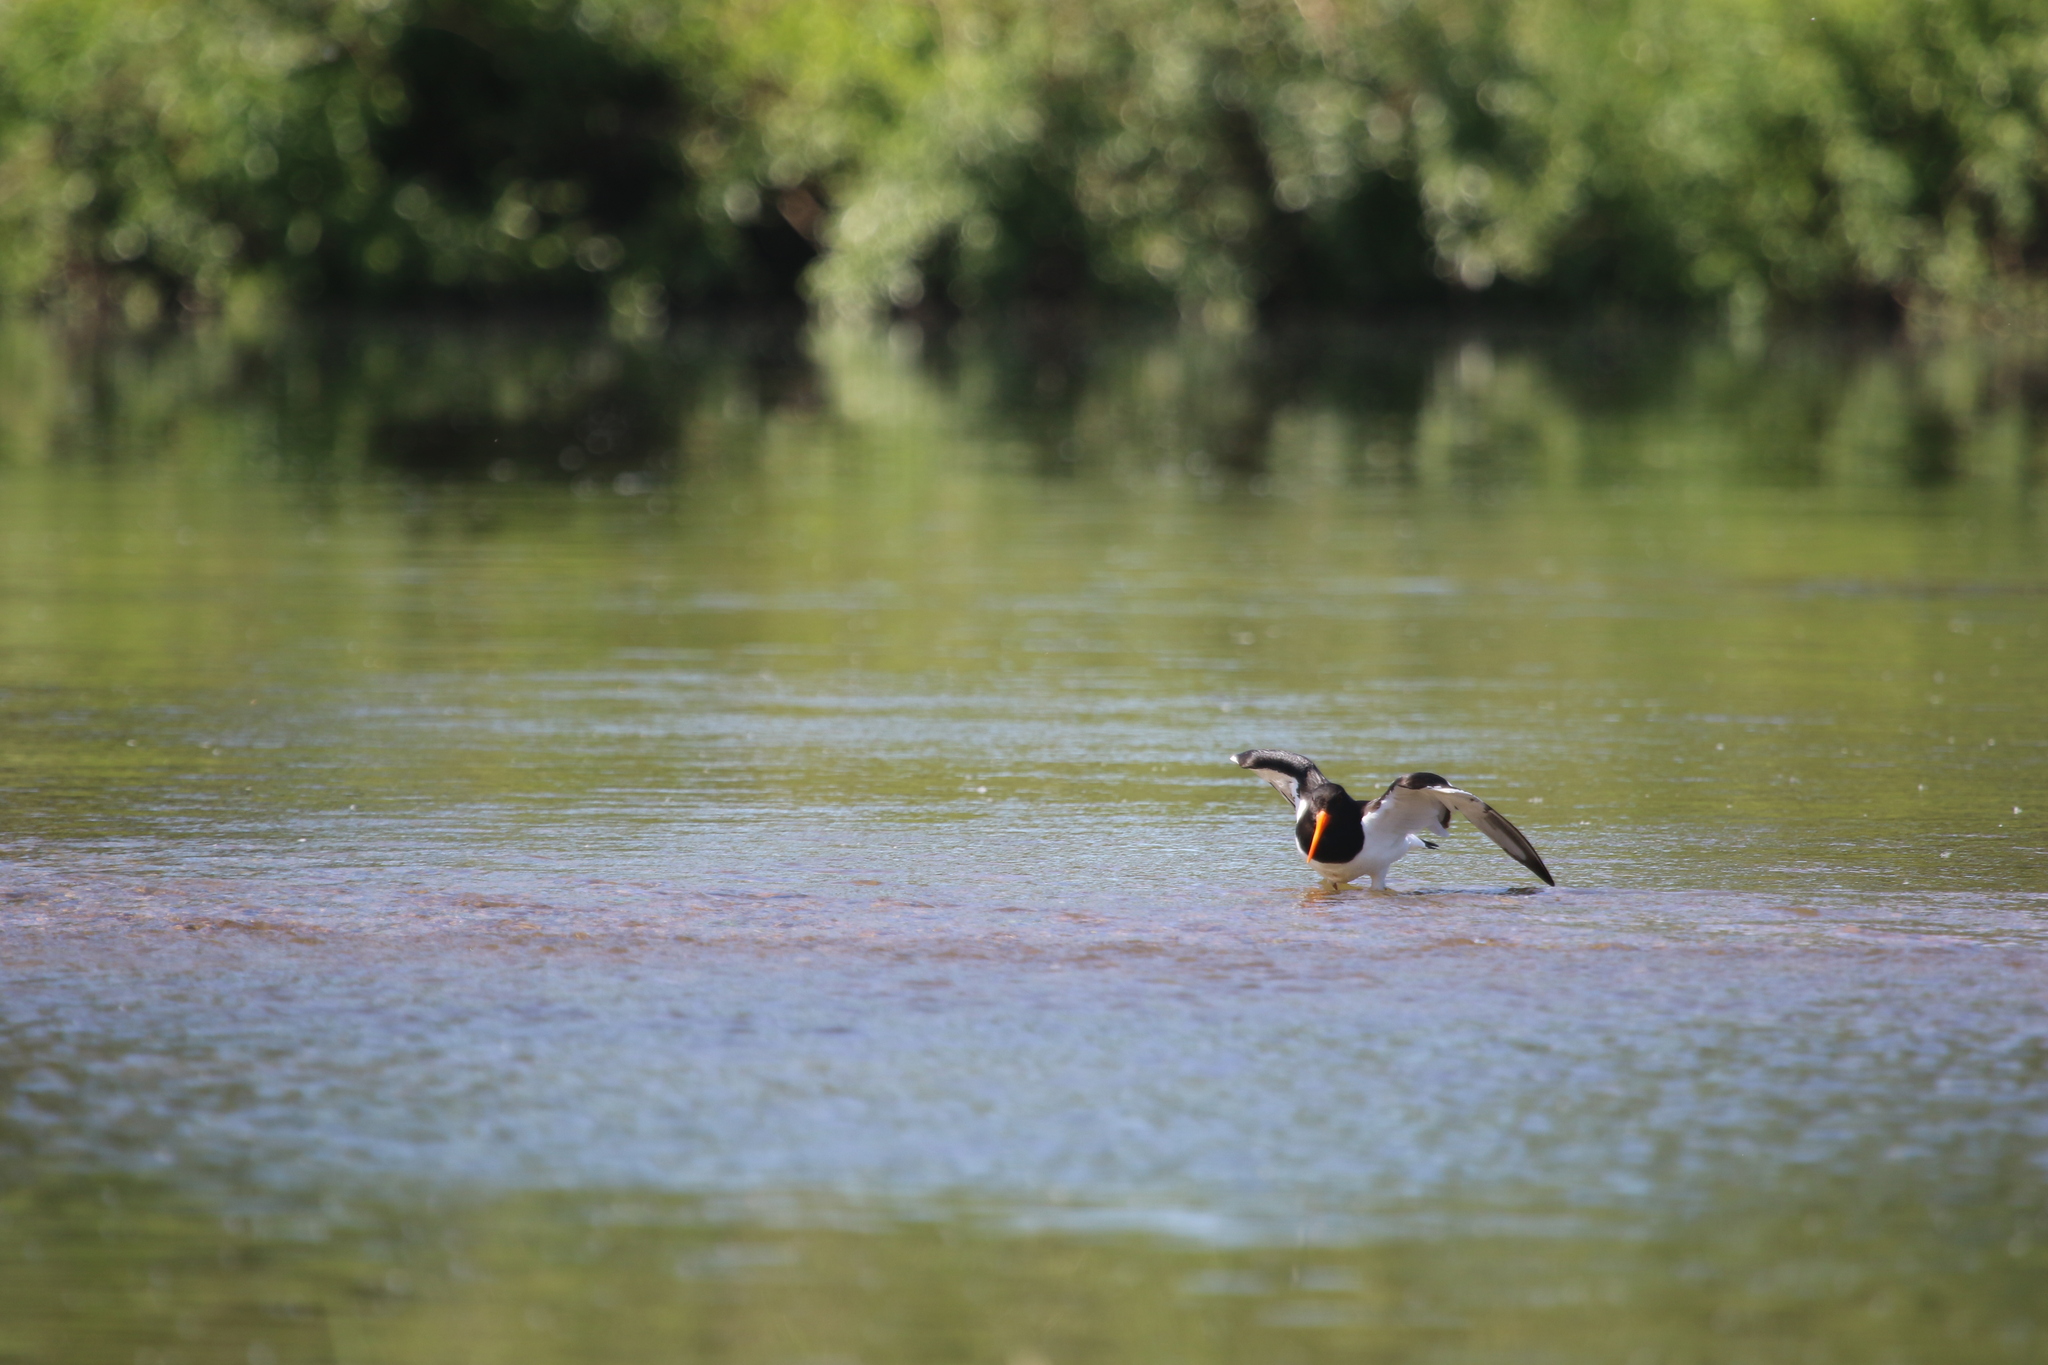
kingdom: Animalia
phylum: Chordata
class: Aves
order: Charadriiformes
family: Haematopodidae
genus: Haematopus
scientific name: Haematopus ostralegus
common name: Eurasian oystercatcher
